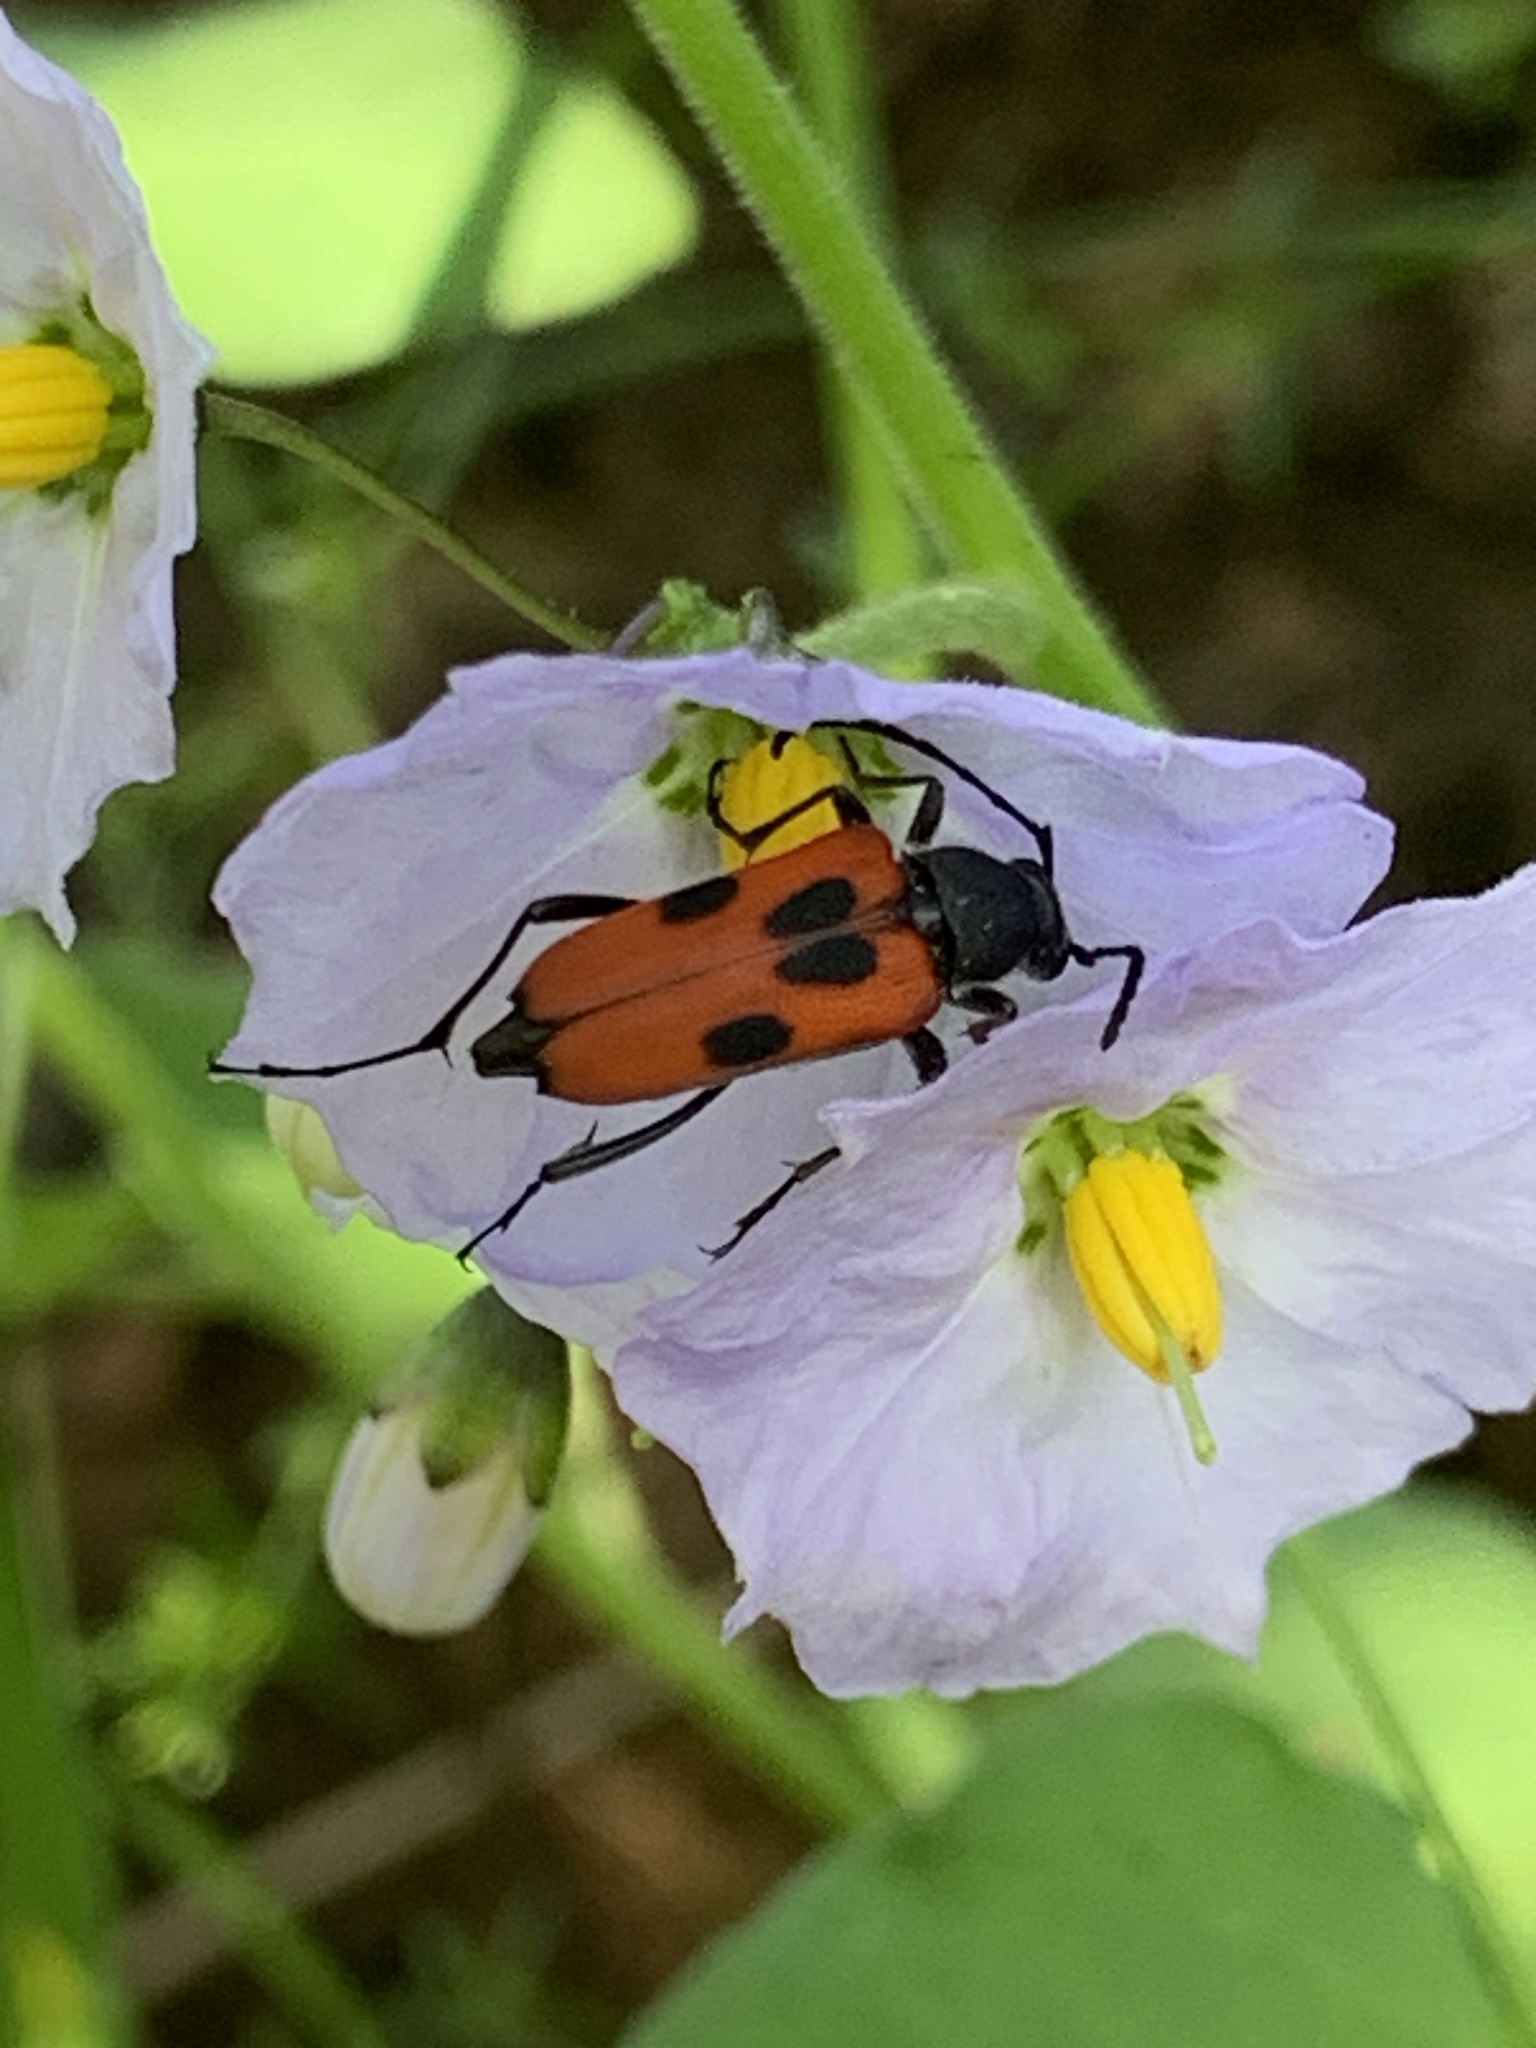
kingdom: Animalia
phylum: Arthropoda
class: Insecta
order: Coleoptera
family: Cerambycidae
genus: Anastrangalia
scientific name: Anastrangalia laetifica
